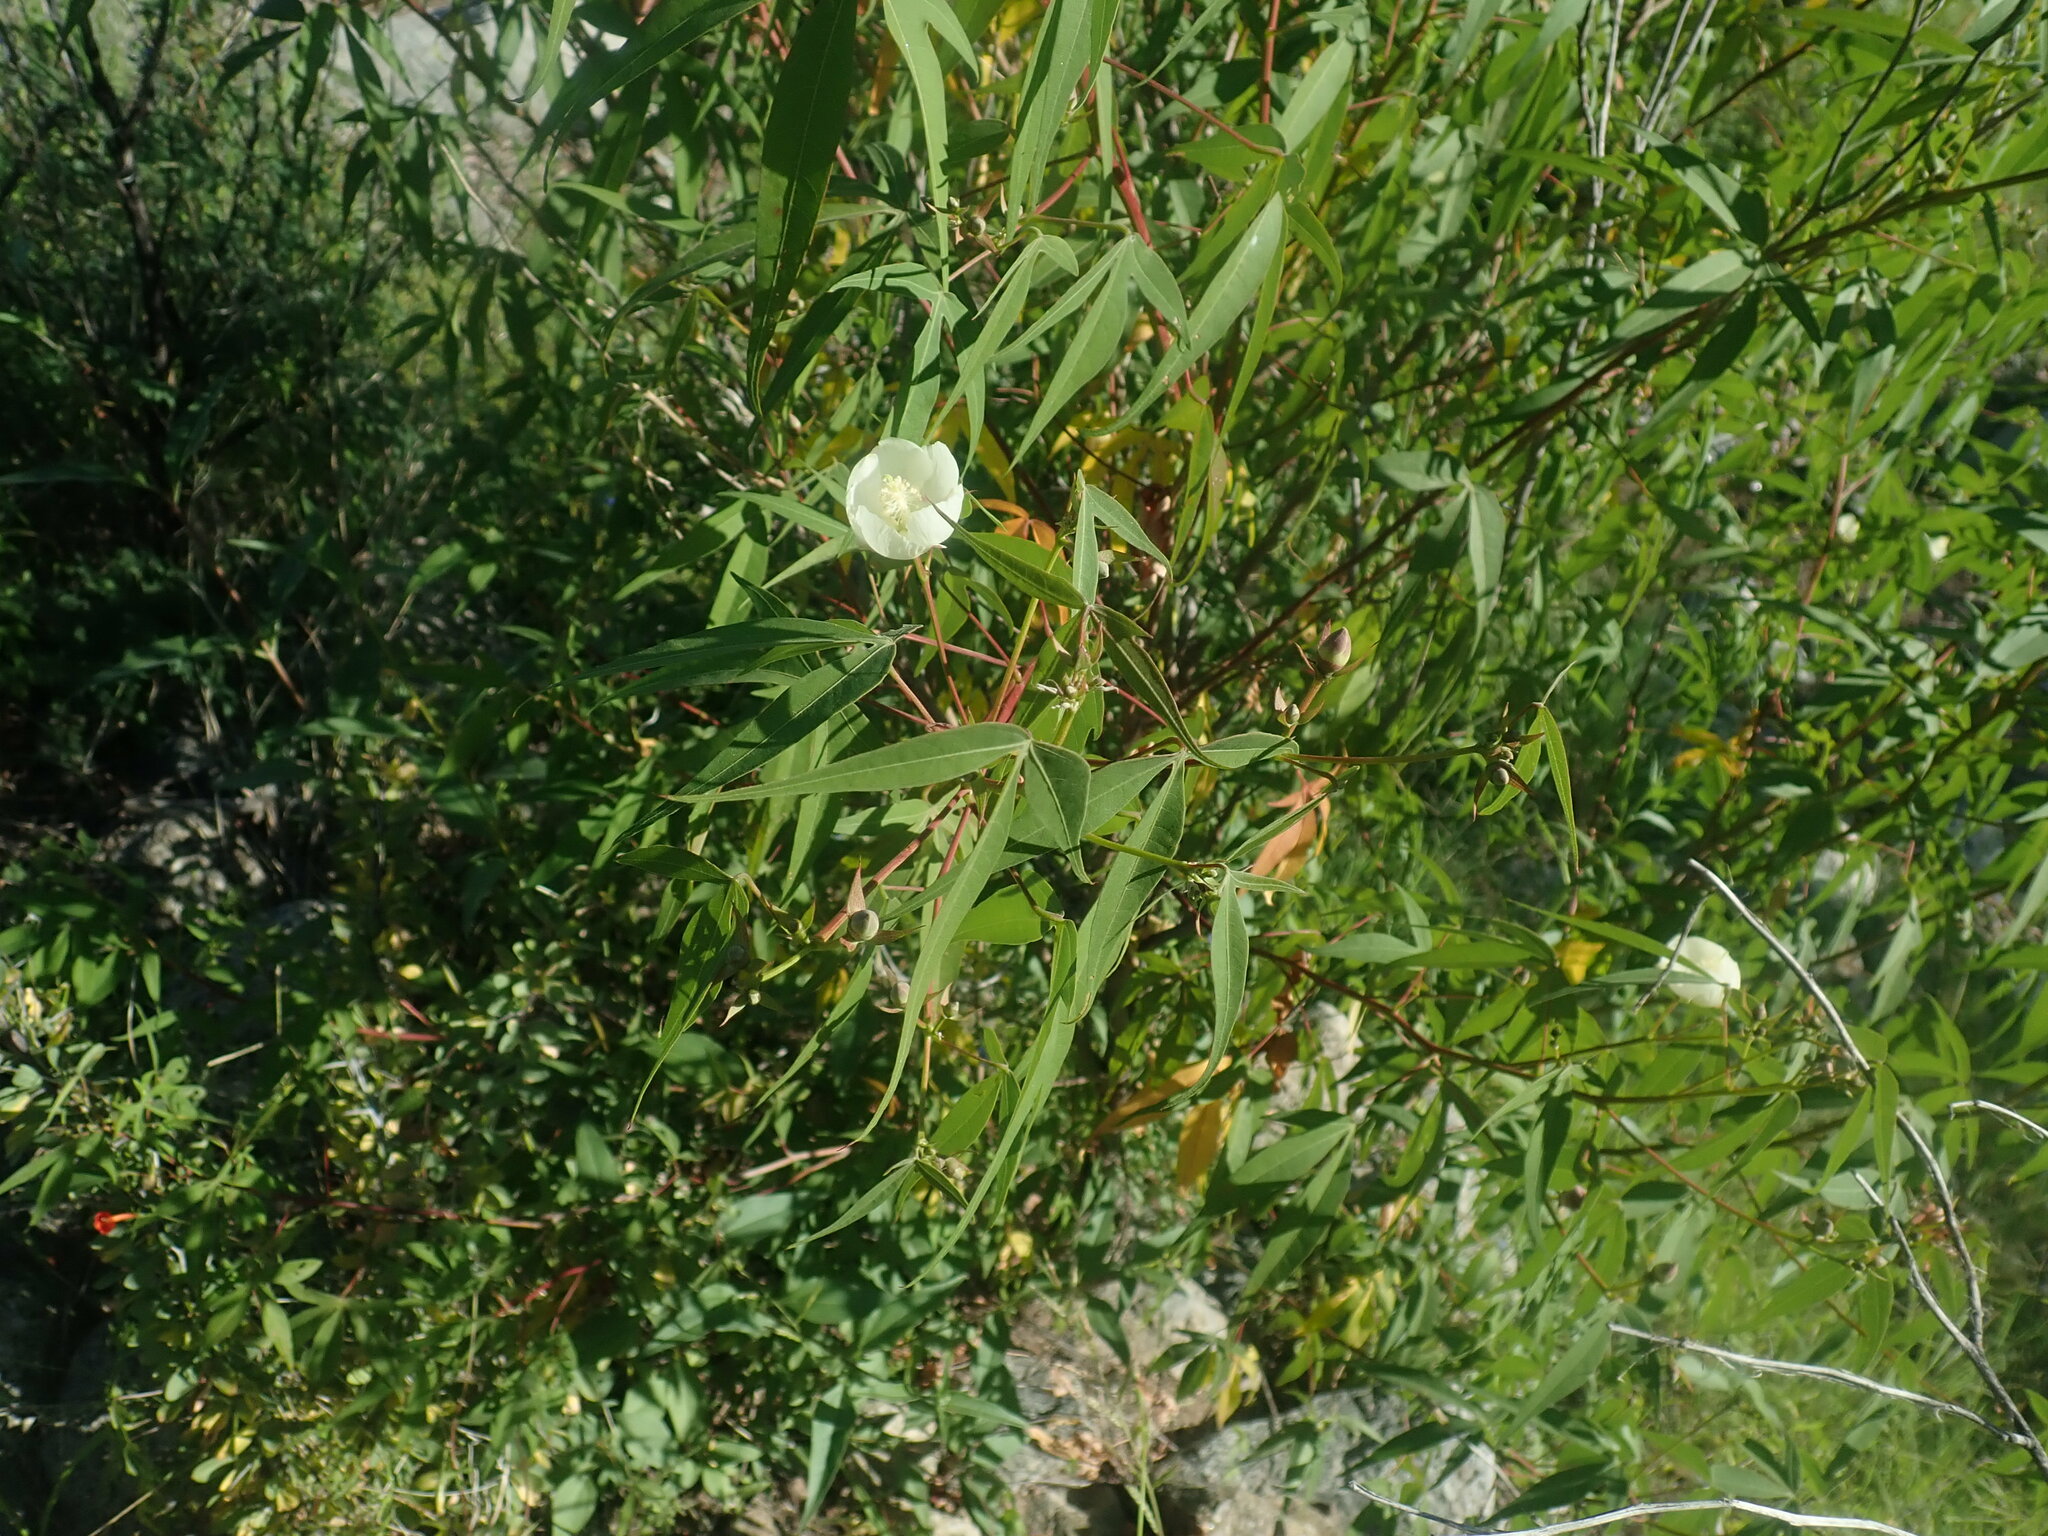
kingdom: Plantae
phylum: Tracheophyta
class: Magnoliopsida
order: Malvales
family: Malvaceae
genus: Gossypium
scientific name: Gossypium thurberi
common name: Desert cotton
